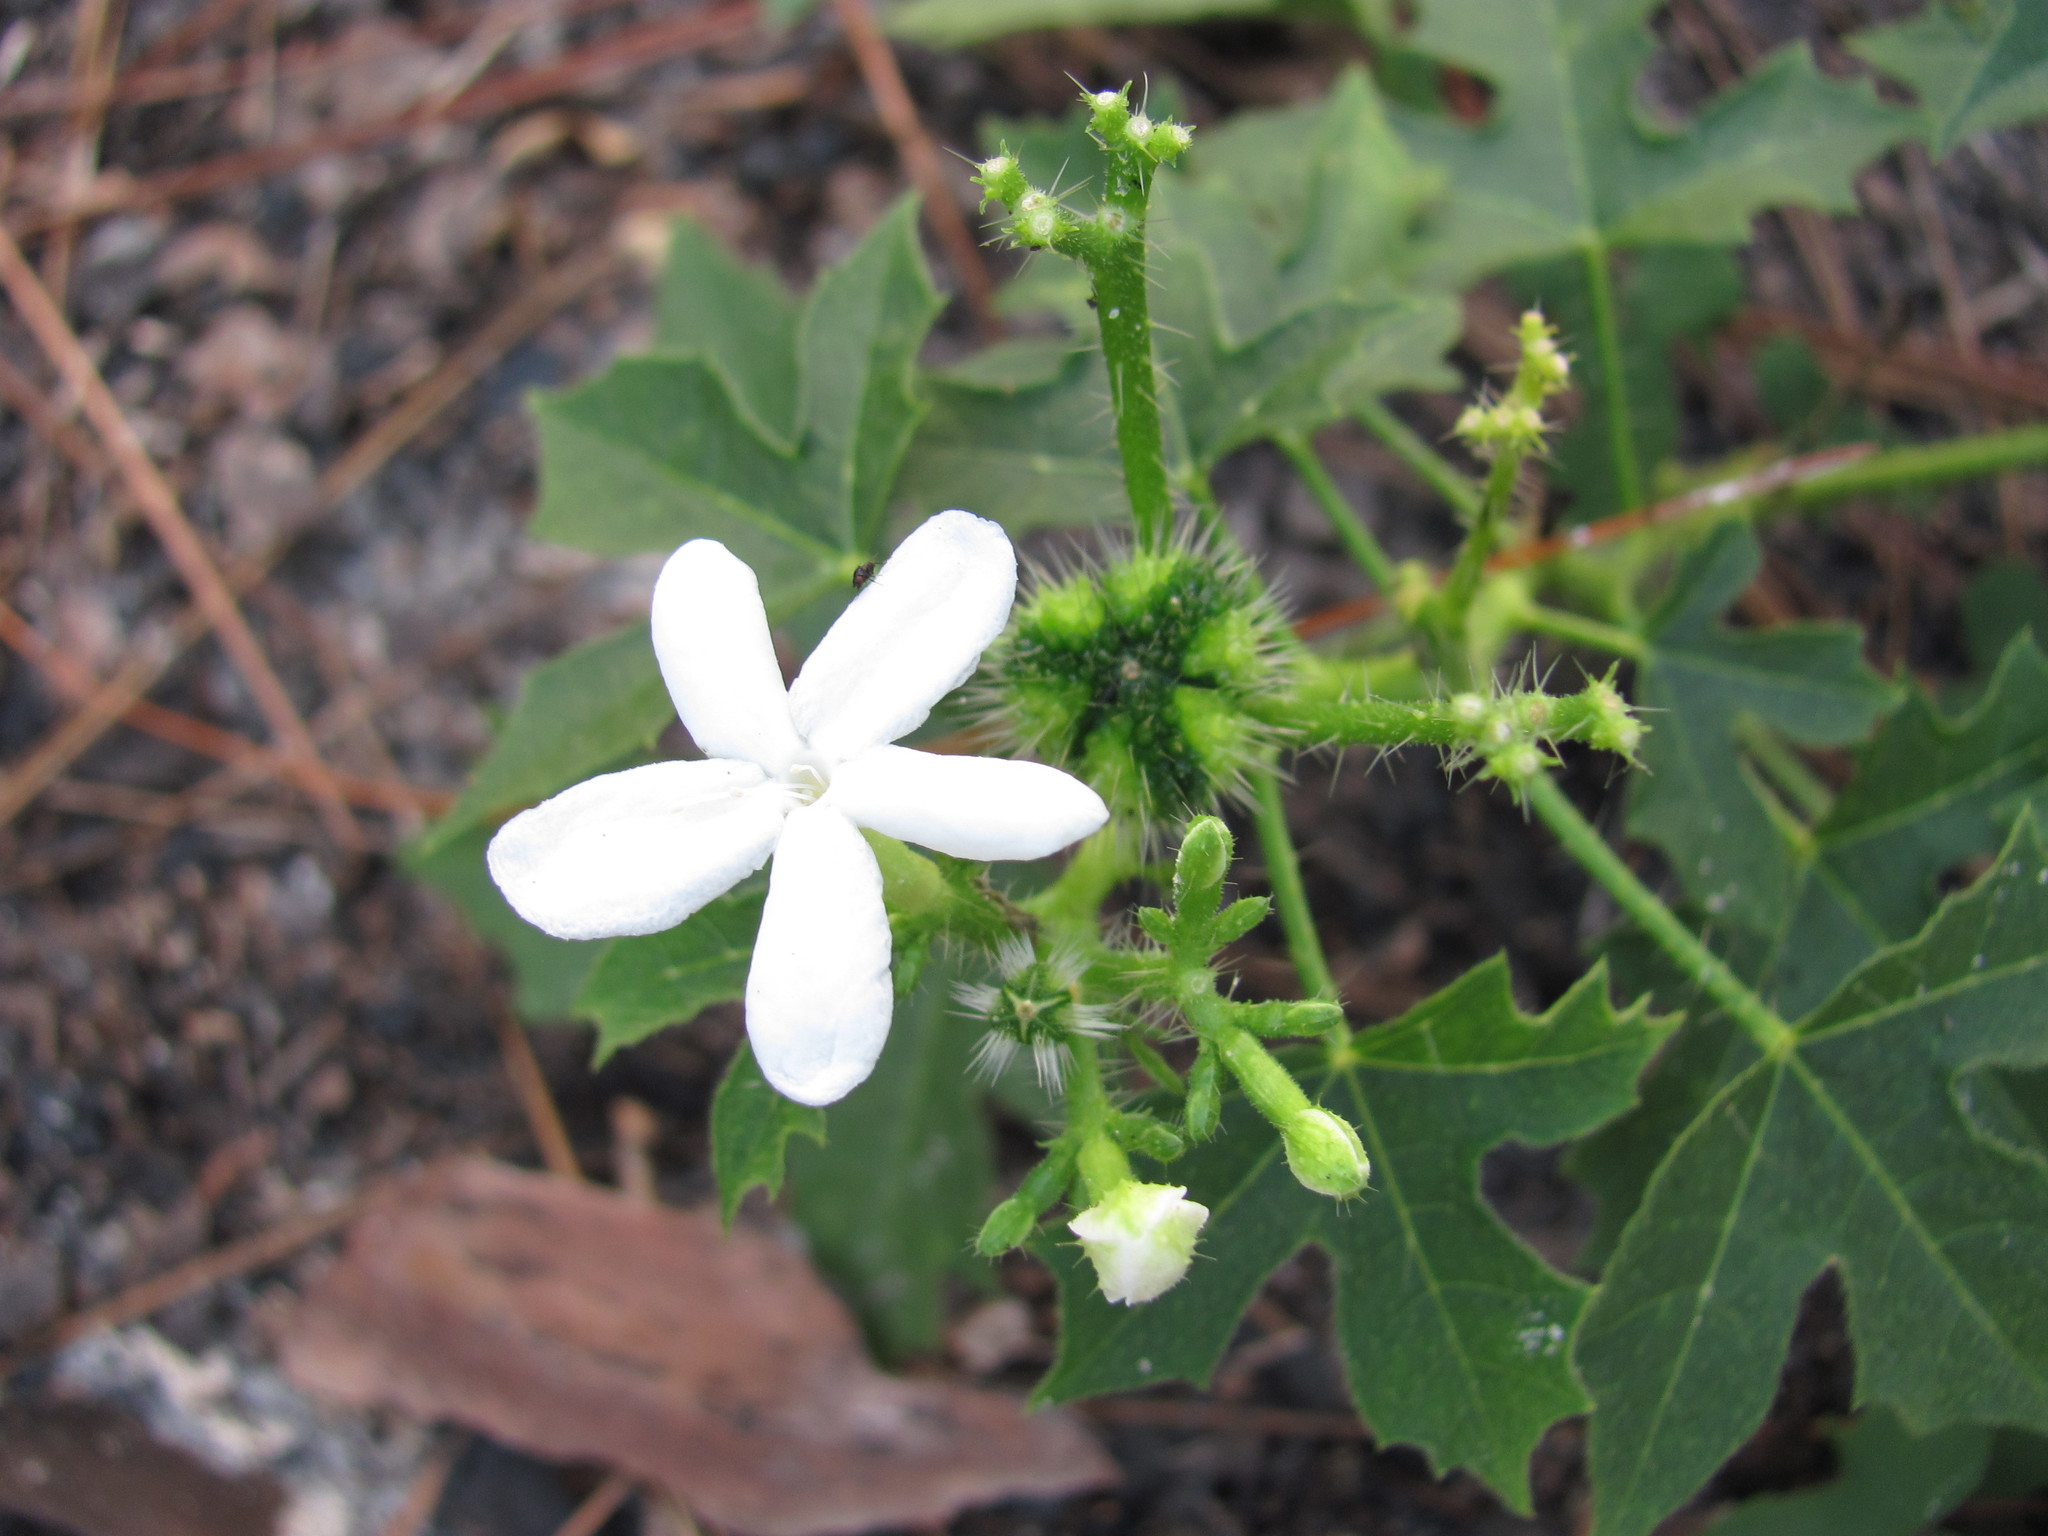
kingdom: Plantae
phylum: Tracheophyta
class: Magnoliopsida
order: Malpighiales
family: Euphorbiaceae
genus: Cnidoscolus
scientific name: Cnidoscolus stimulosus
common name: Bull-nettle
